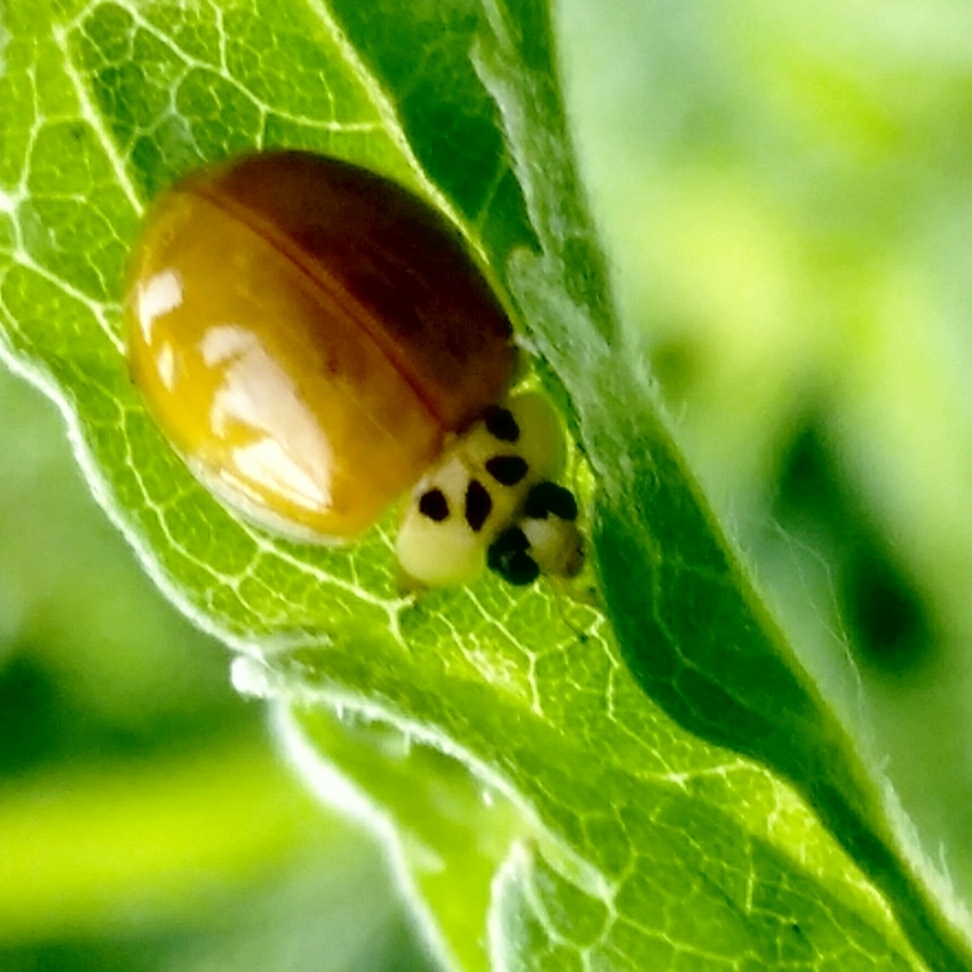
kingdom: Animalia
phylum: Arthropoda
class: Insecta
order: Coleoptera
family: Coccinellidae
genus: Harmonia
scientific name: Harmonia axyridis
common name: Harlequin ladybird
